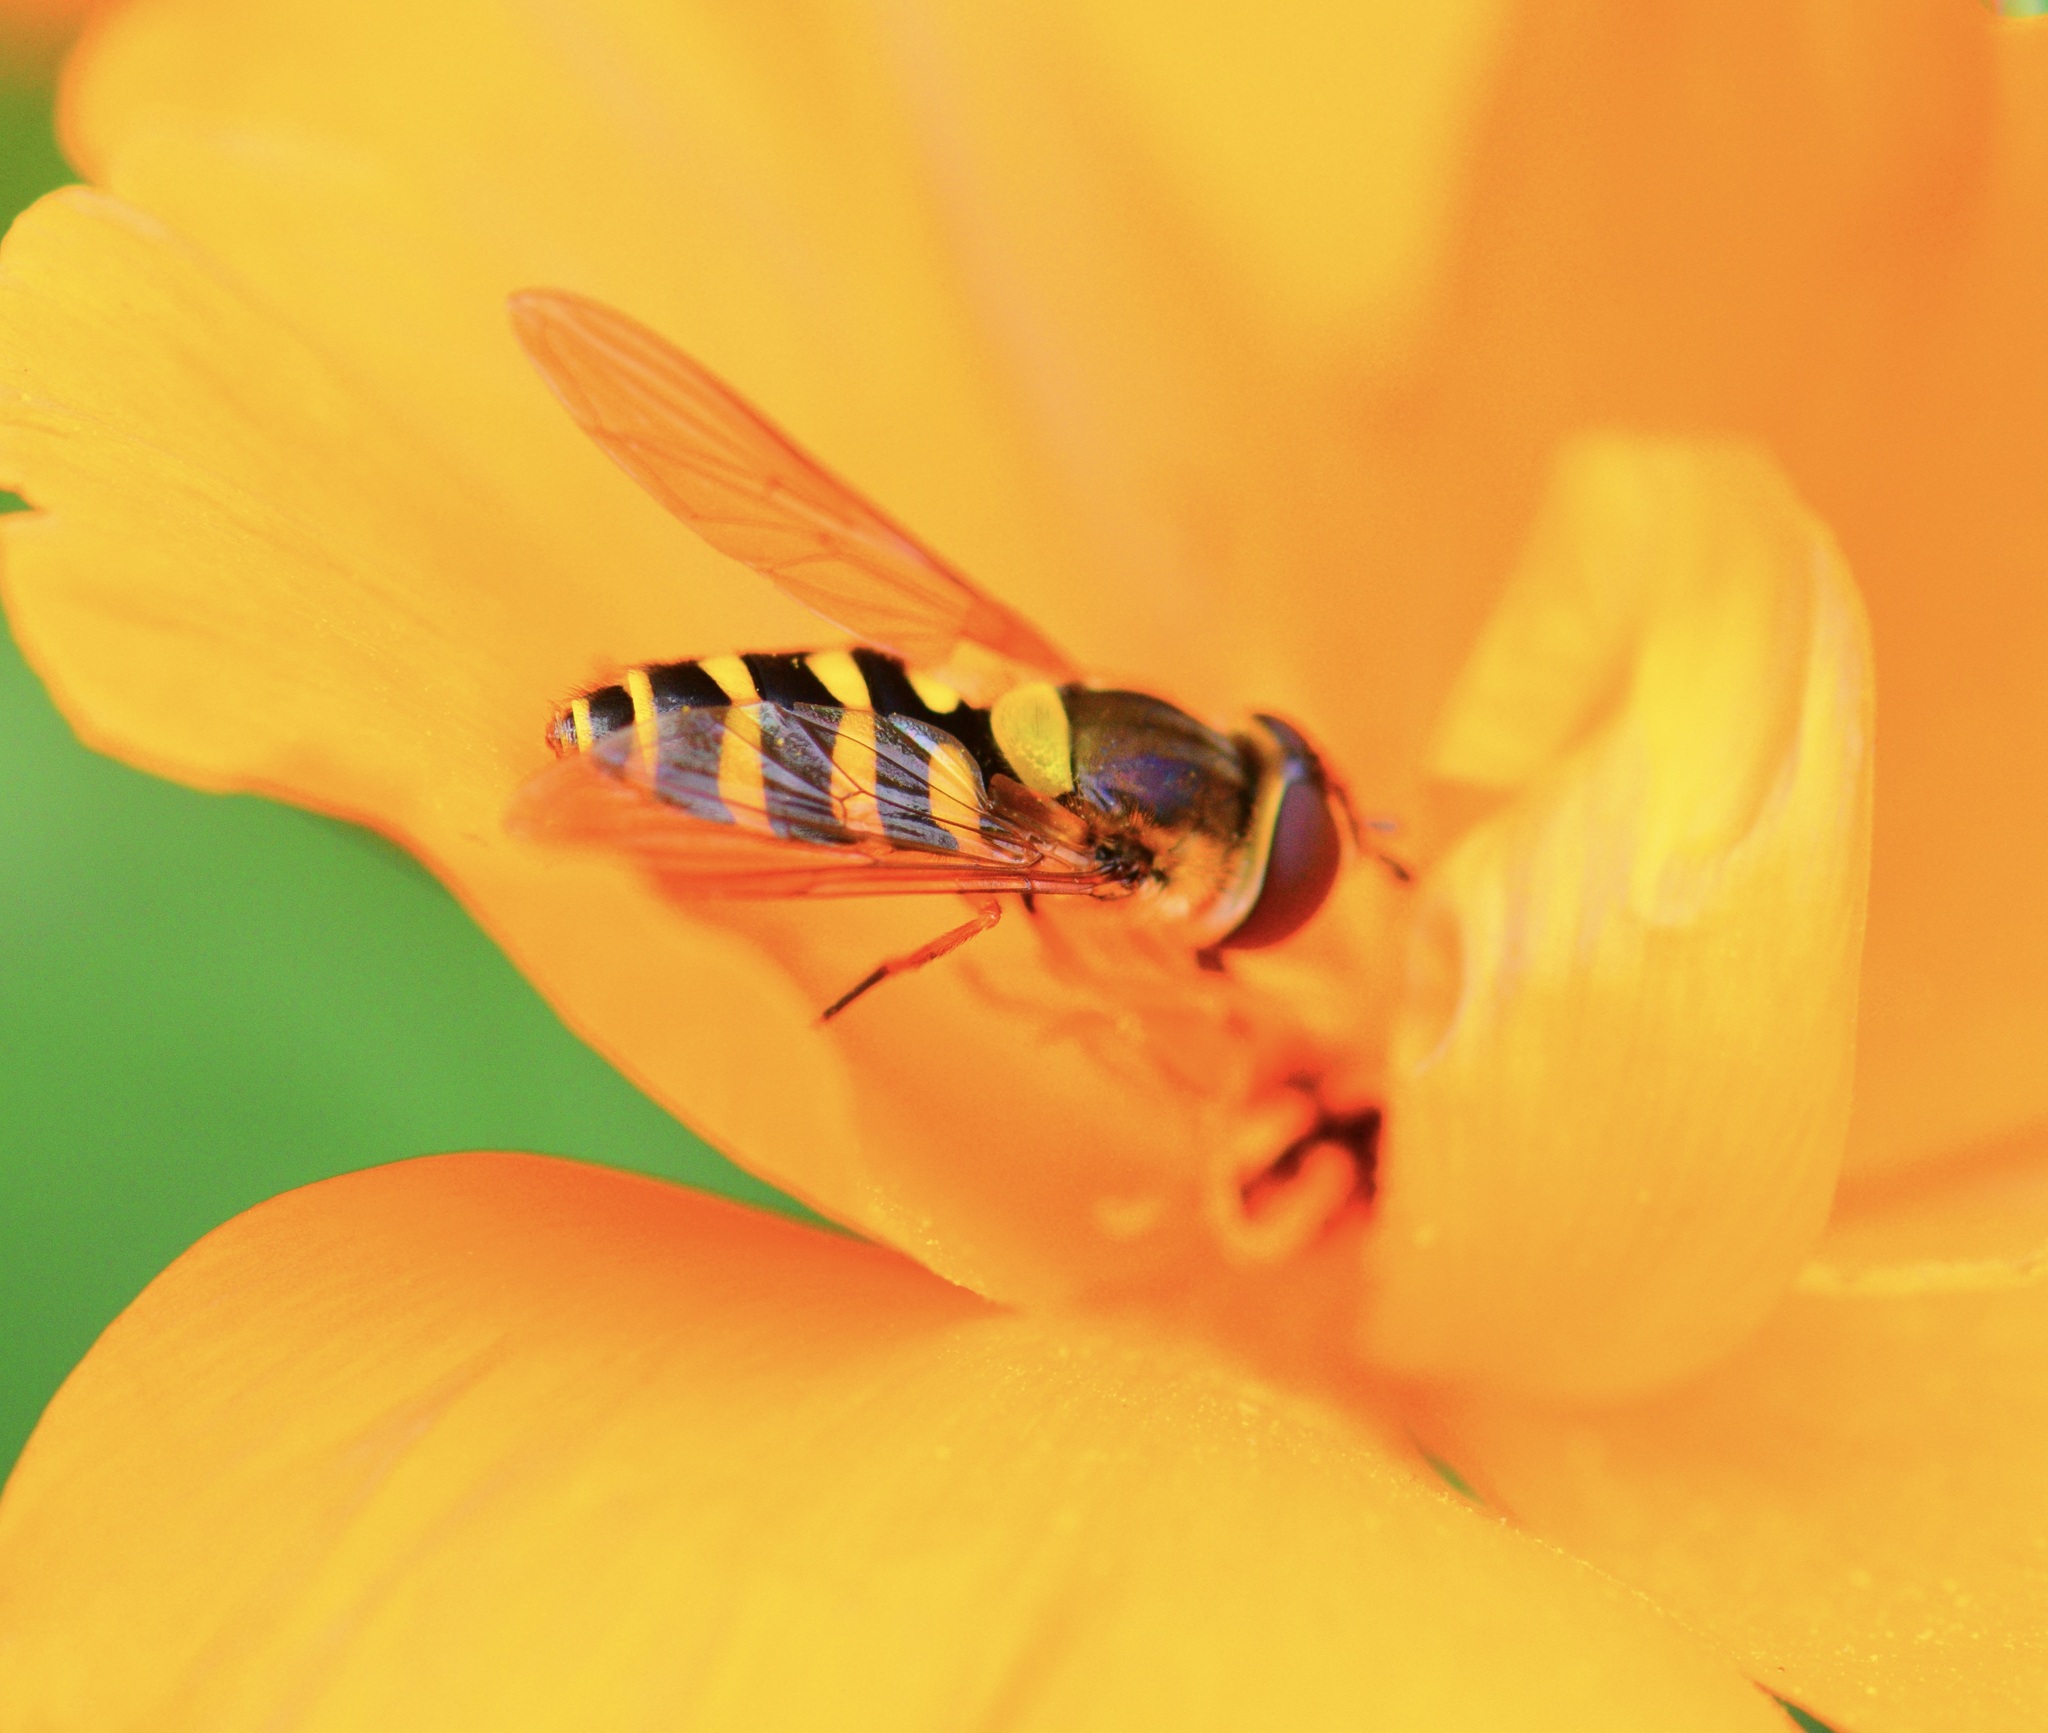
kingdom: Animalia
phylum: Arthropoda
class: Insecta
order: Diptera
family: Syrphidae
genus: Syrphus
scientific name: Syrphus
